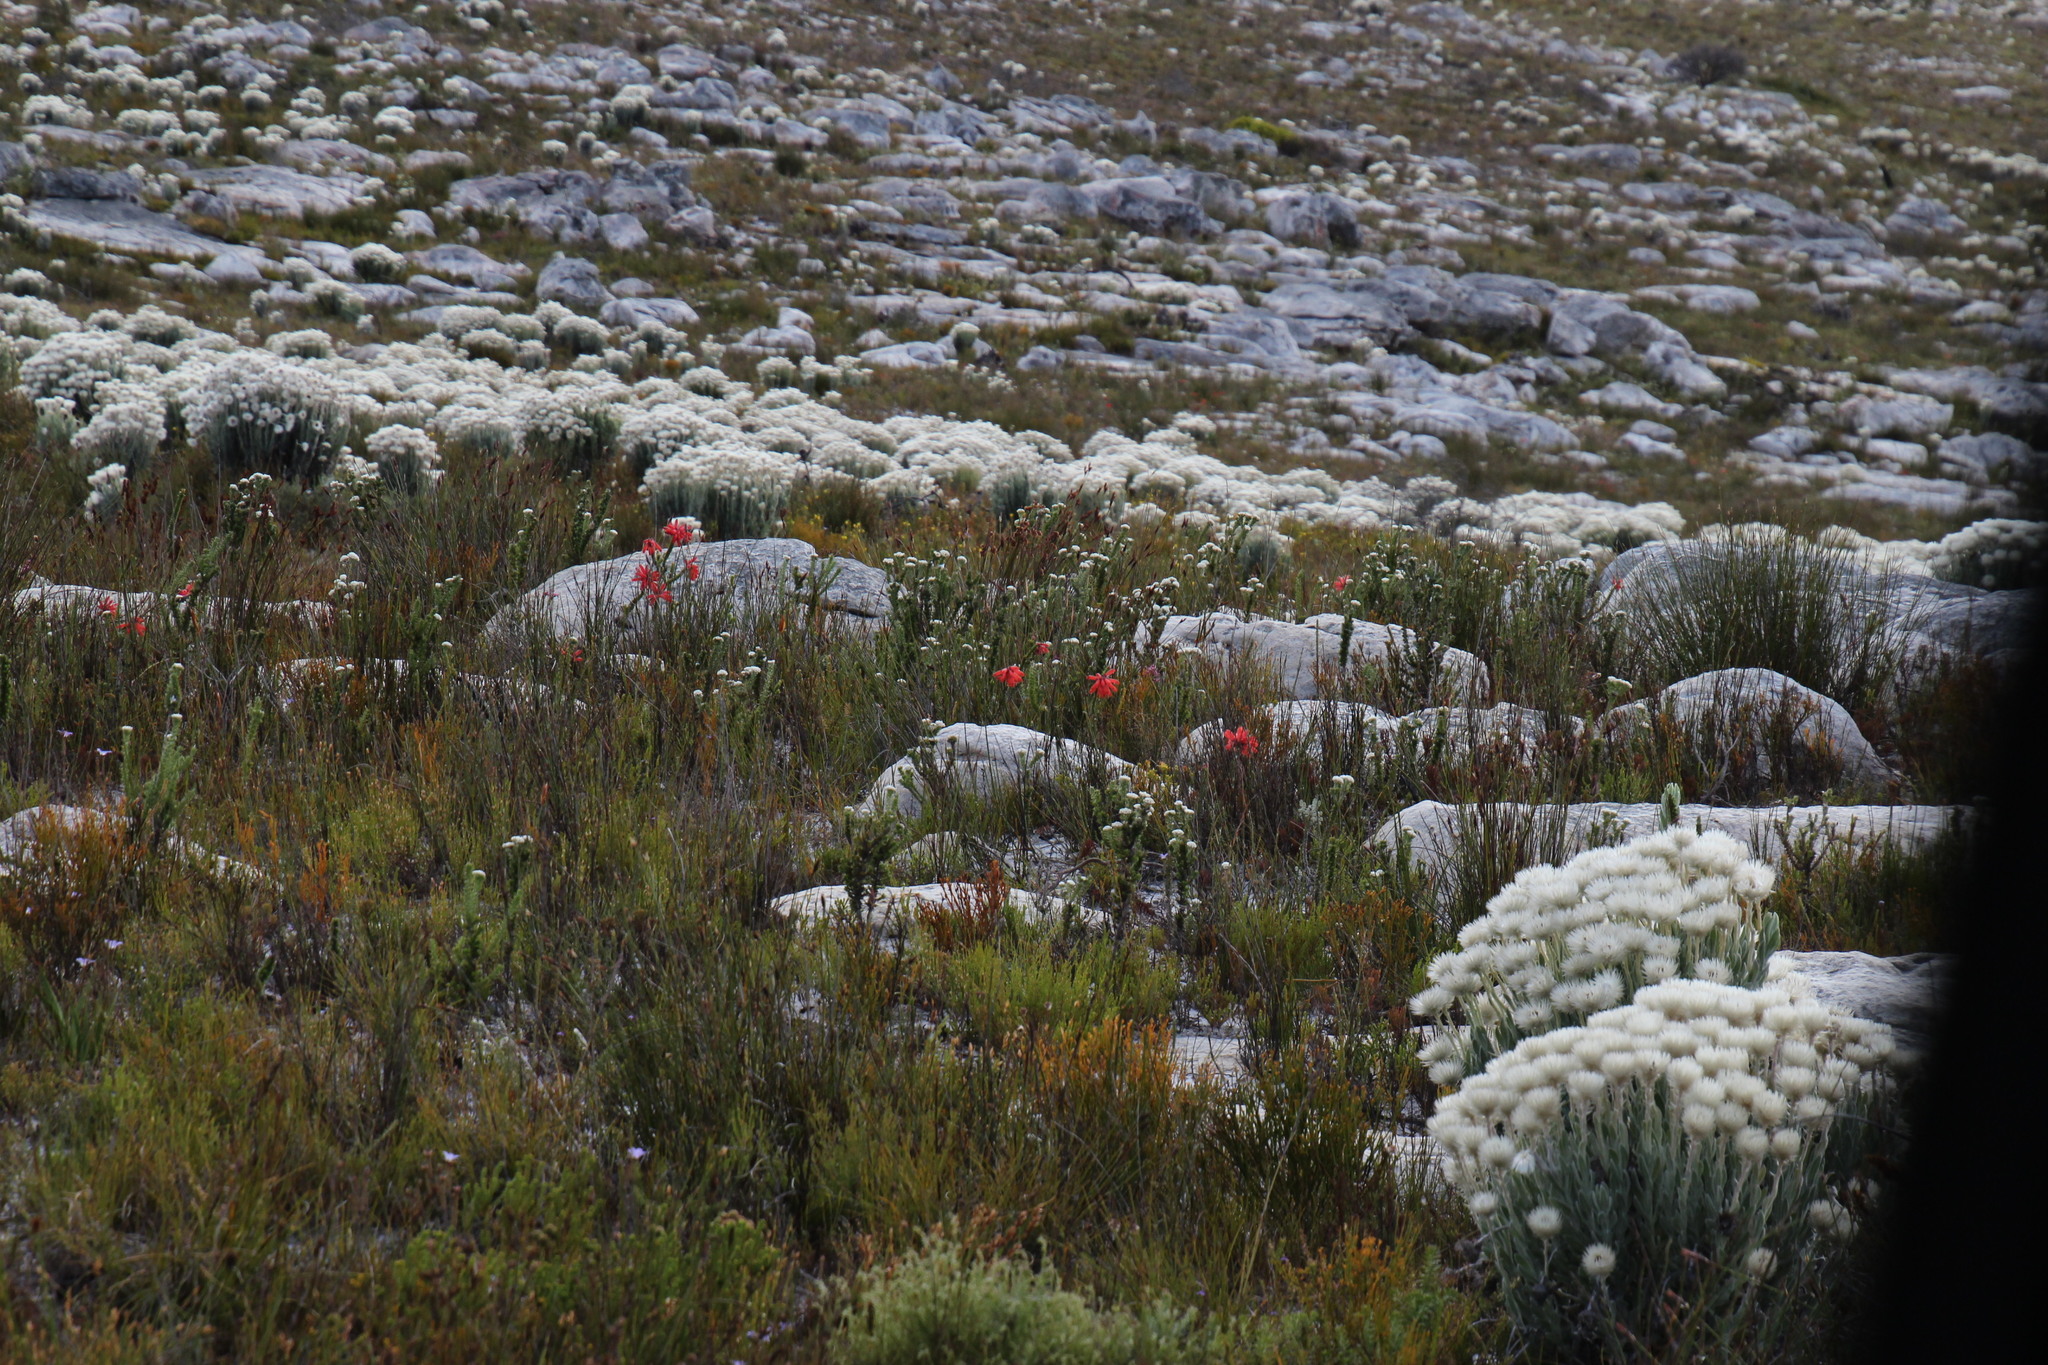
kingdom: Plantae
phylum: Tracheophyta
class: Magnoliopsida
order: Asterales
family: Asteraceae
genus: Syncarpha
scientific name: Syncarpha vestita
